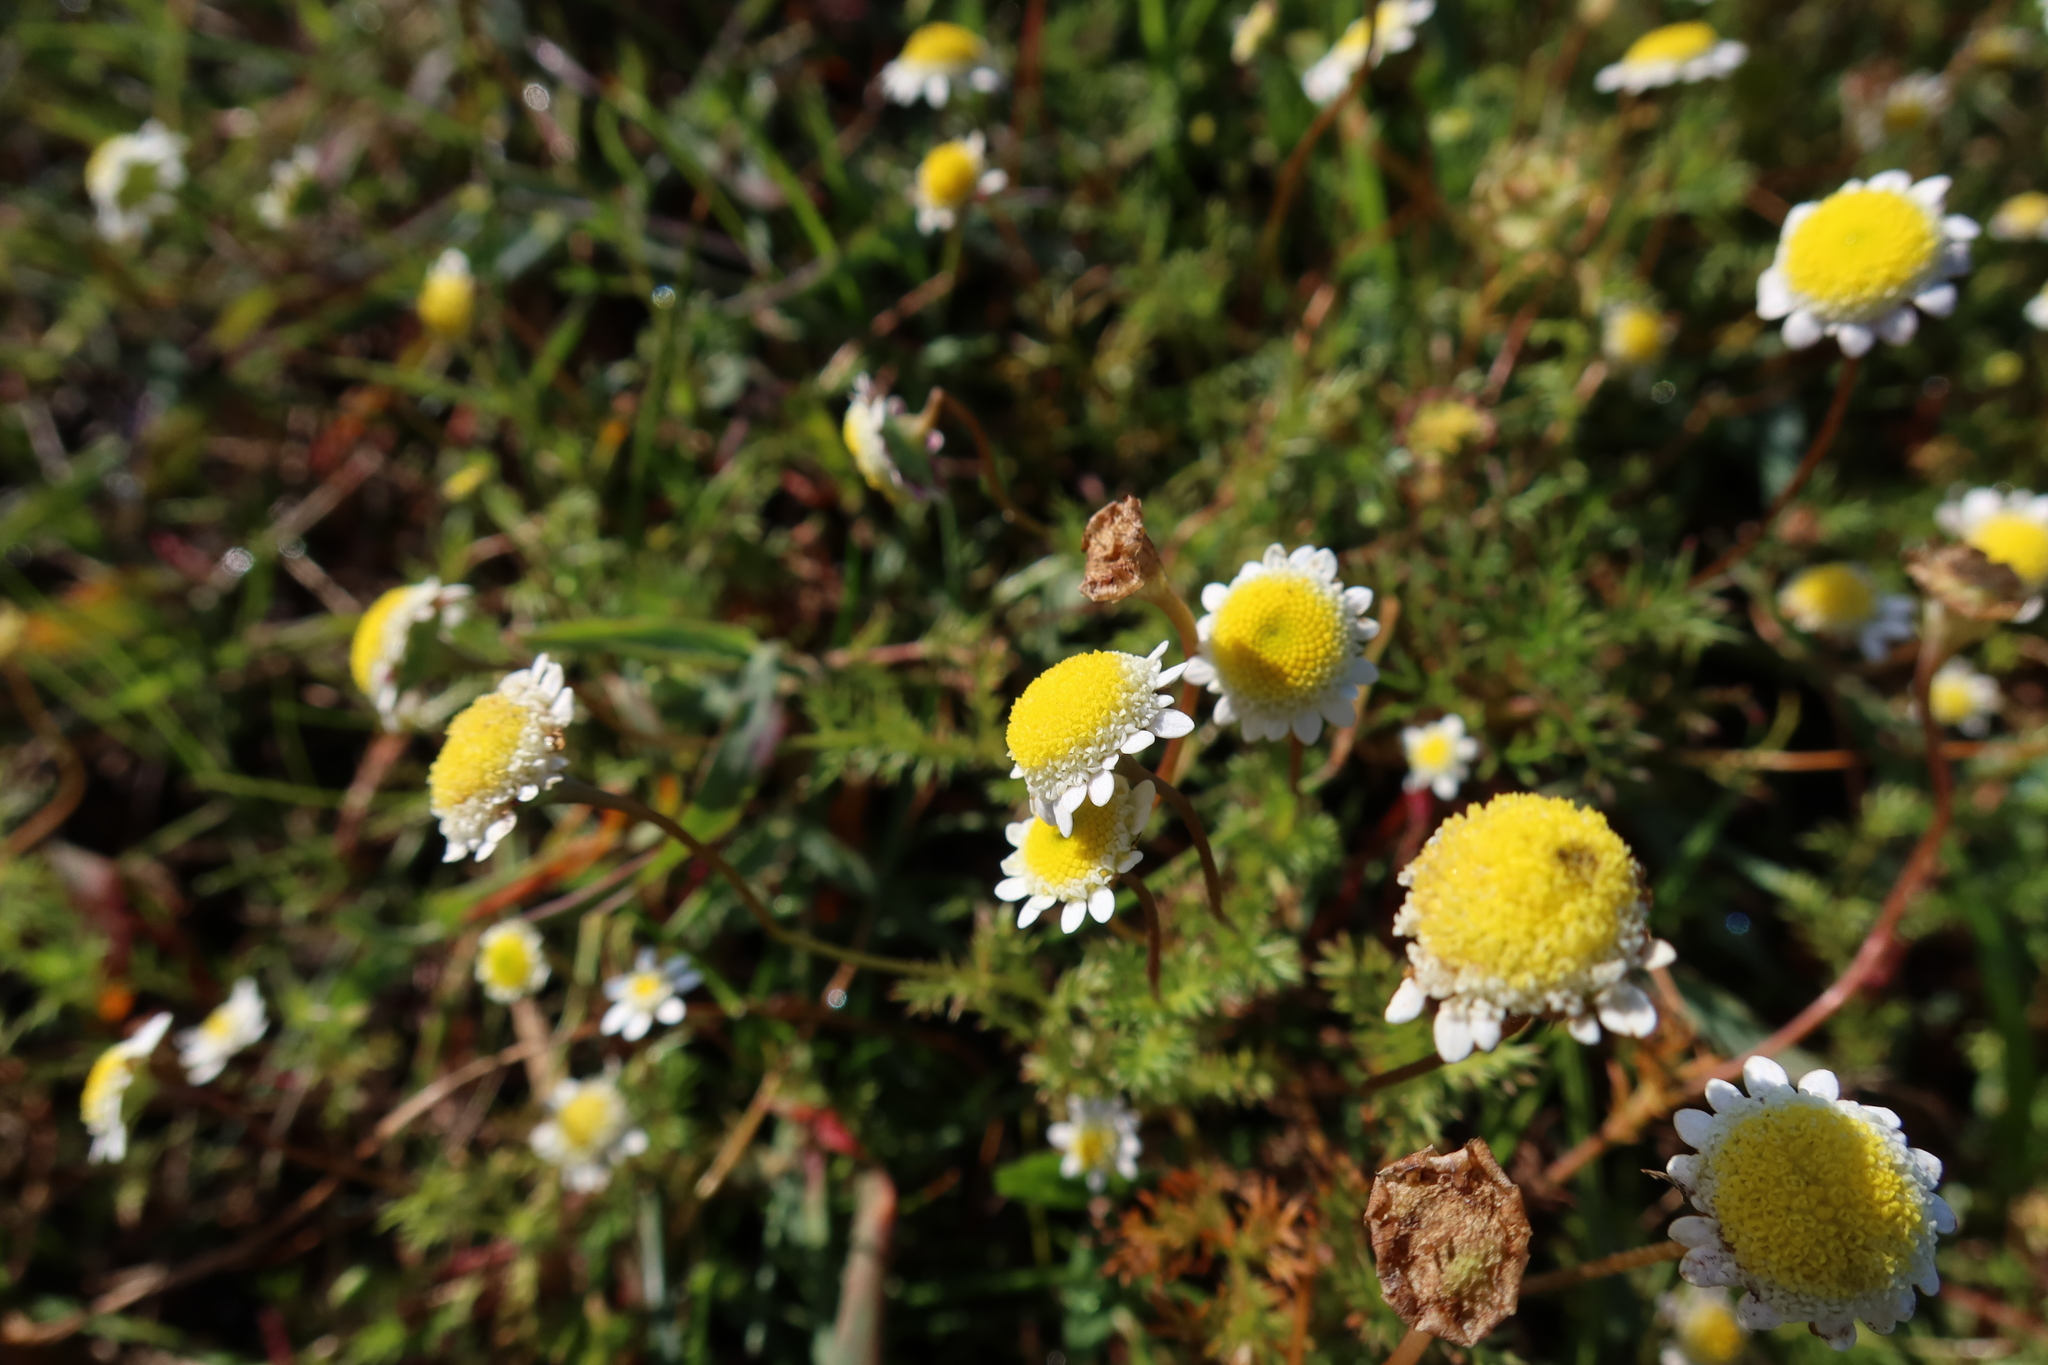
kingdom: Plantae
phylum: Tracheophyta
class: Magnoliopsida
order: Asterales
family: Asteraceae
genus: Cotula
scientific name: Cotula turbinata
